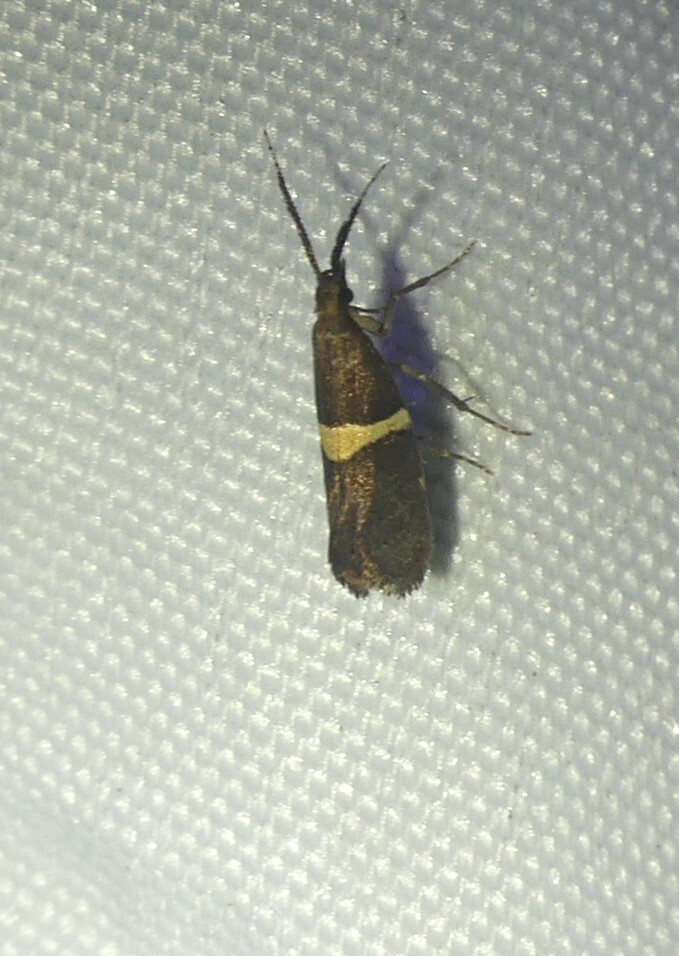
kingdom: Animalia
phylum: Arthropoda
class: Insecta
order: Lepidoptera
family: Plutellidae
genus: Eidophasia
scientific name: Eidophasia messingiella
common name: Bitter-cress smudge
